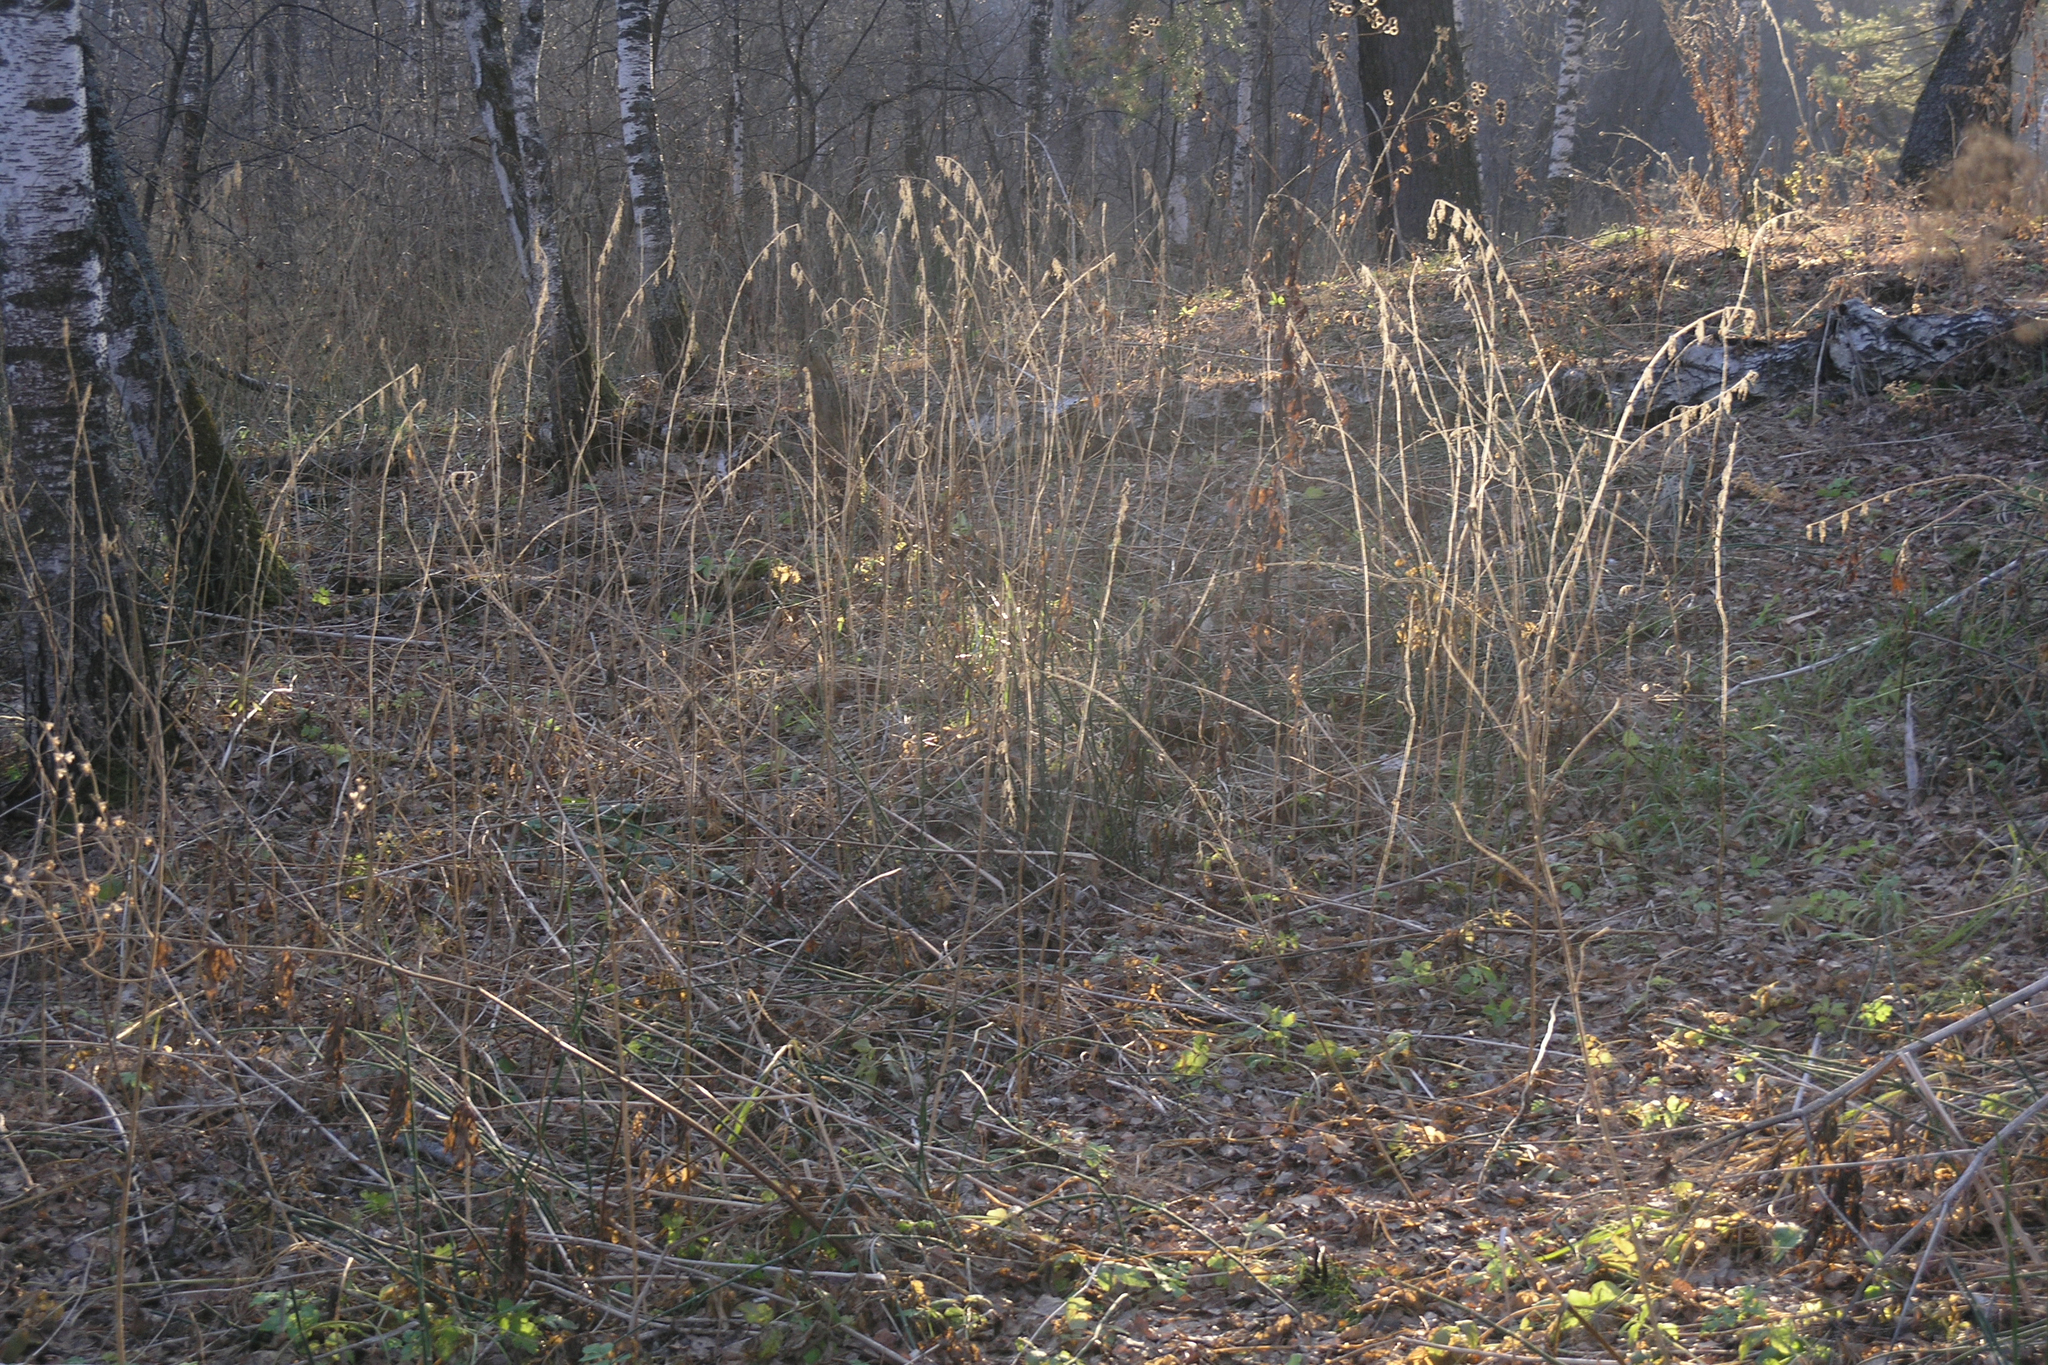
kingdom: Plantae
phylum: Tracheophyta
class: Magnoliopsida
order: Rosales
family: Urticaceae
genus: Urtica
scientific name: Urtica dioica
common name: Common nettle
